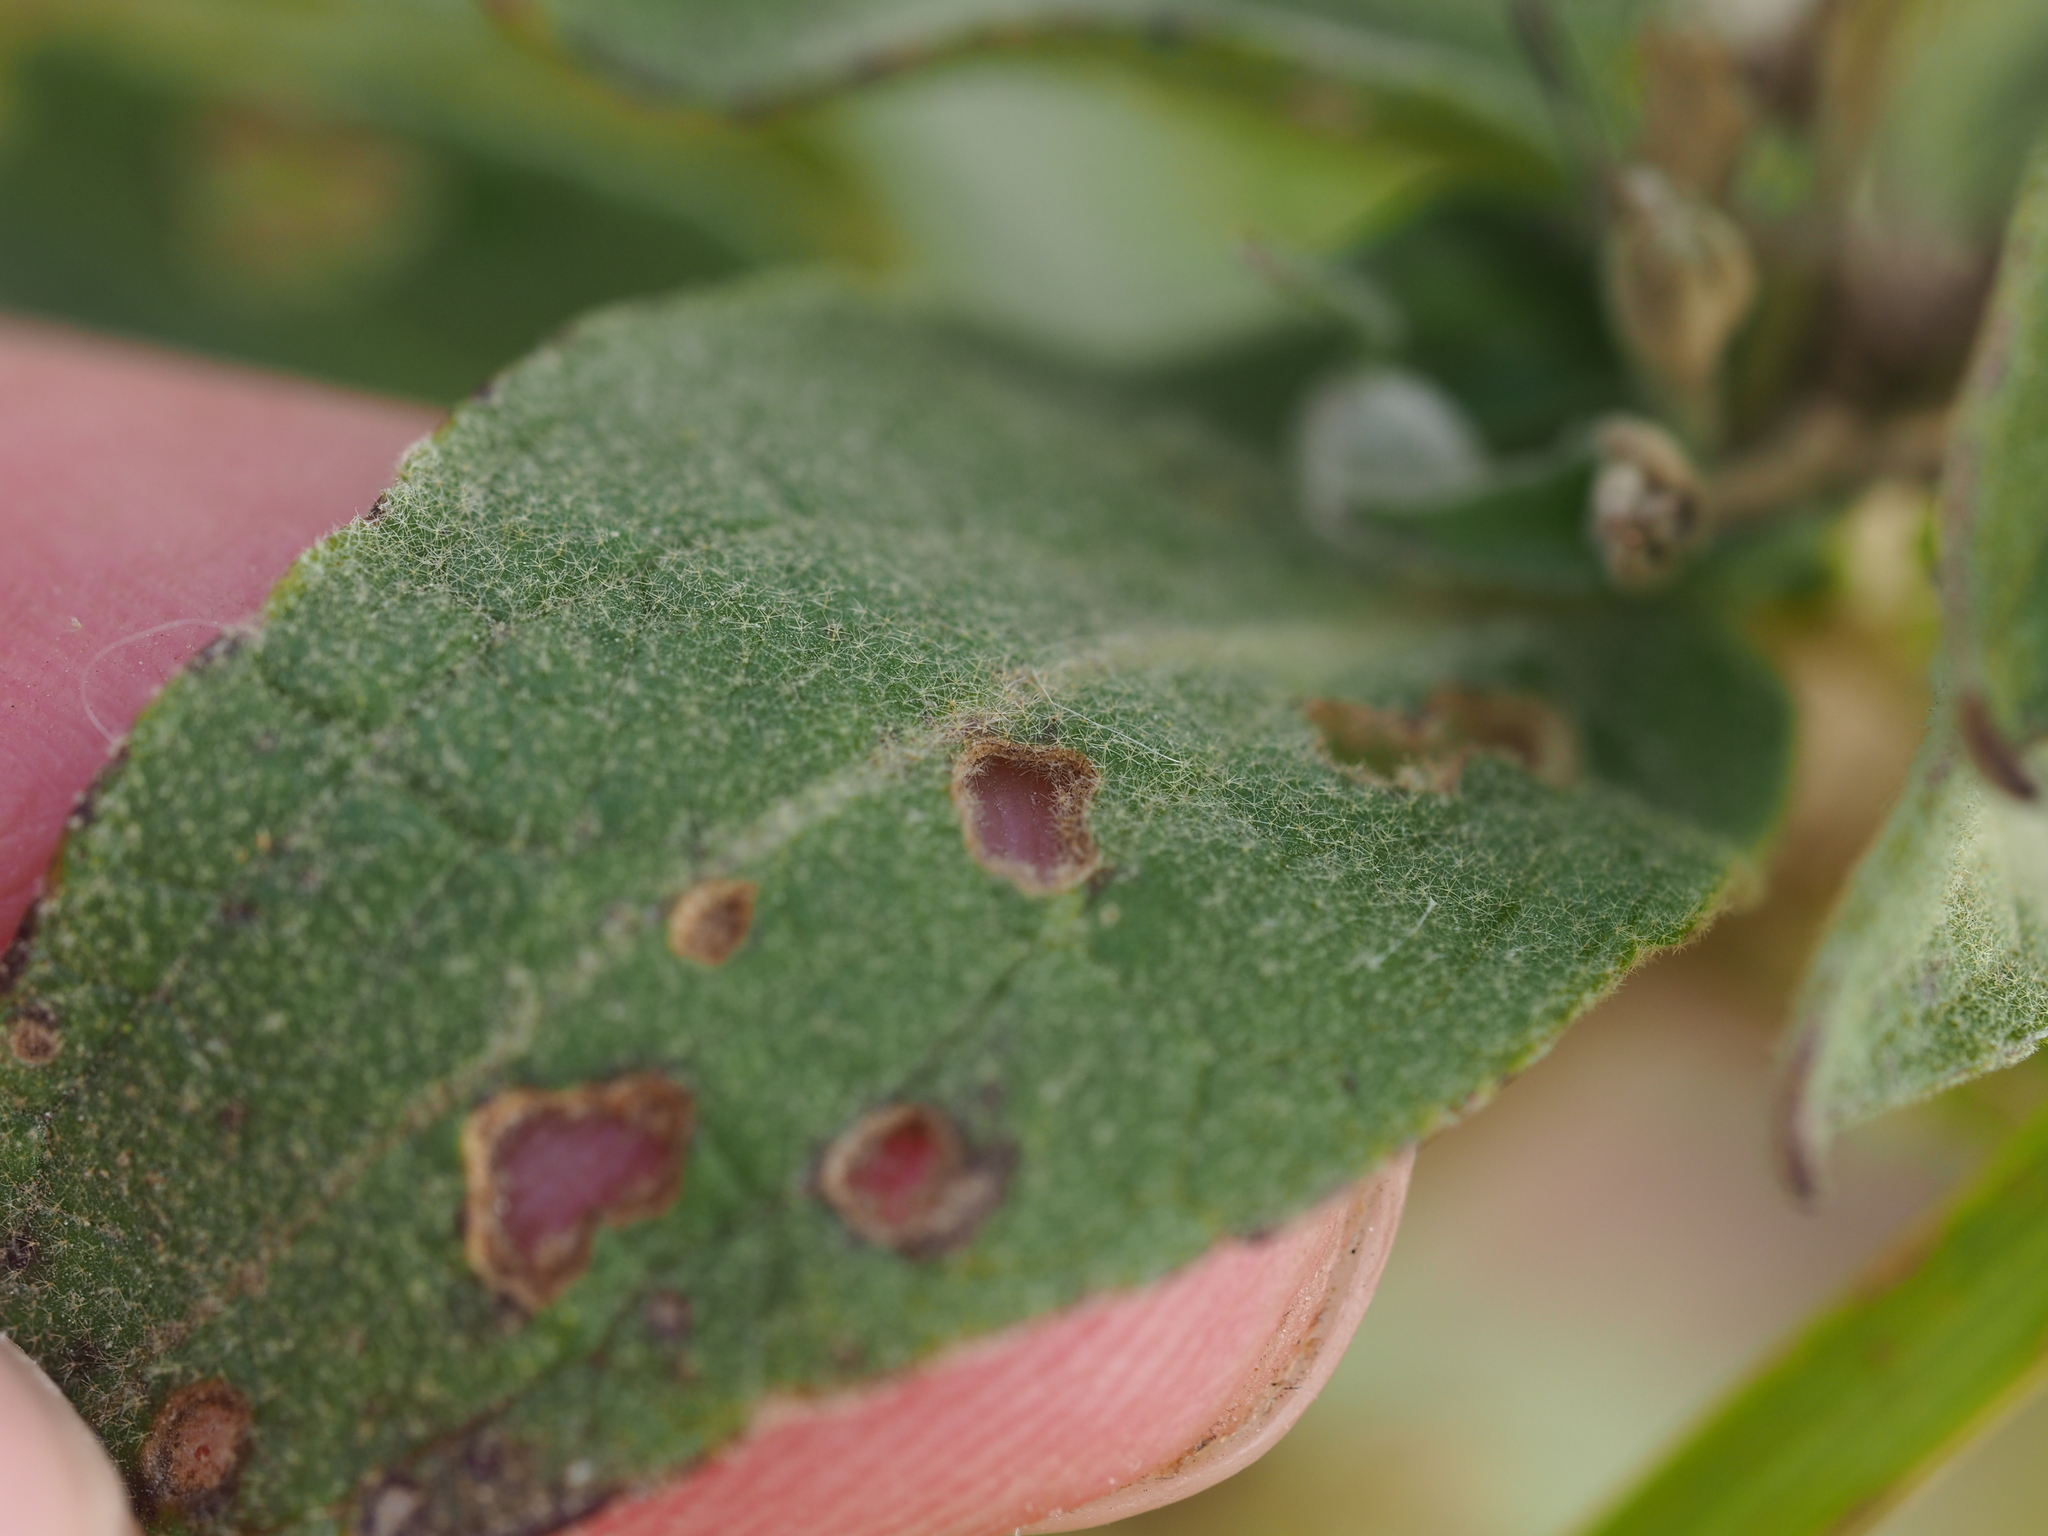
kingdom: Plantae
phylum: Tracheophyta
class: Magnoliopsida
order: Lamiales
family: Scrophulariaceae
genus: Verbascum
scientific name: Verbascum lychnitis
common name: White mullein
